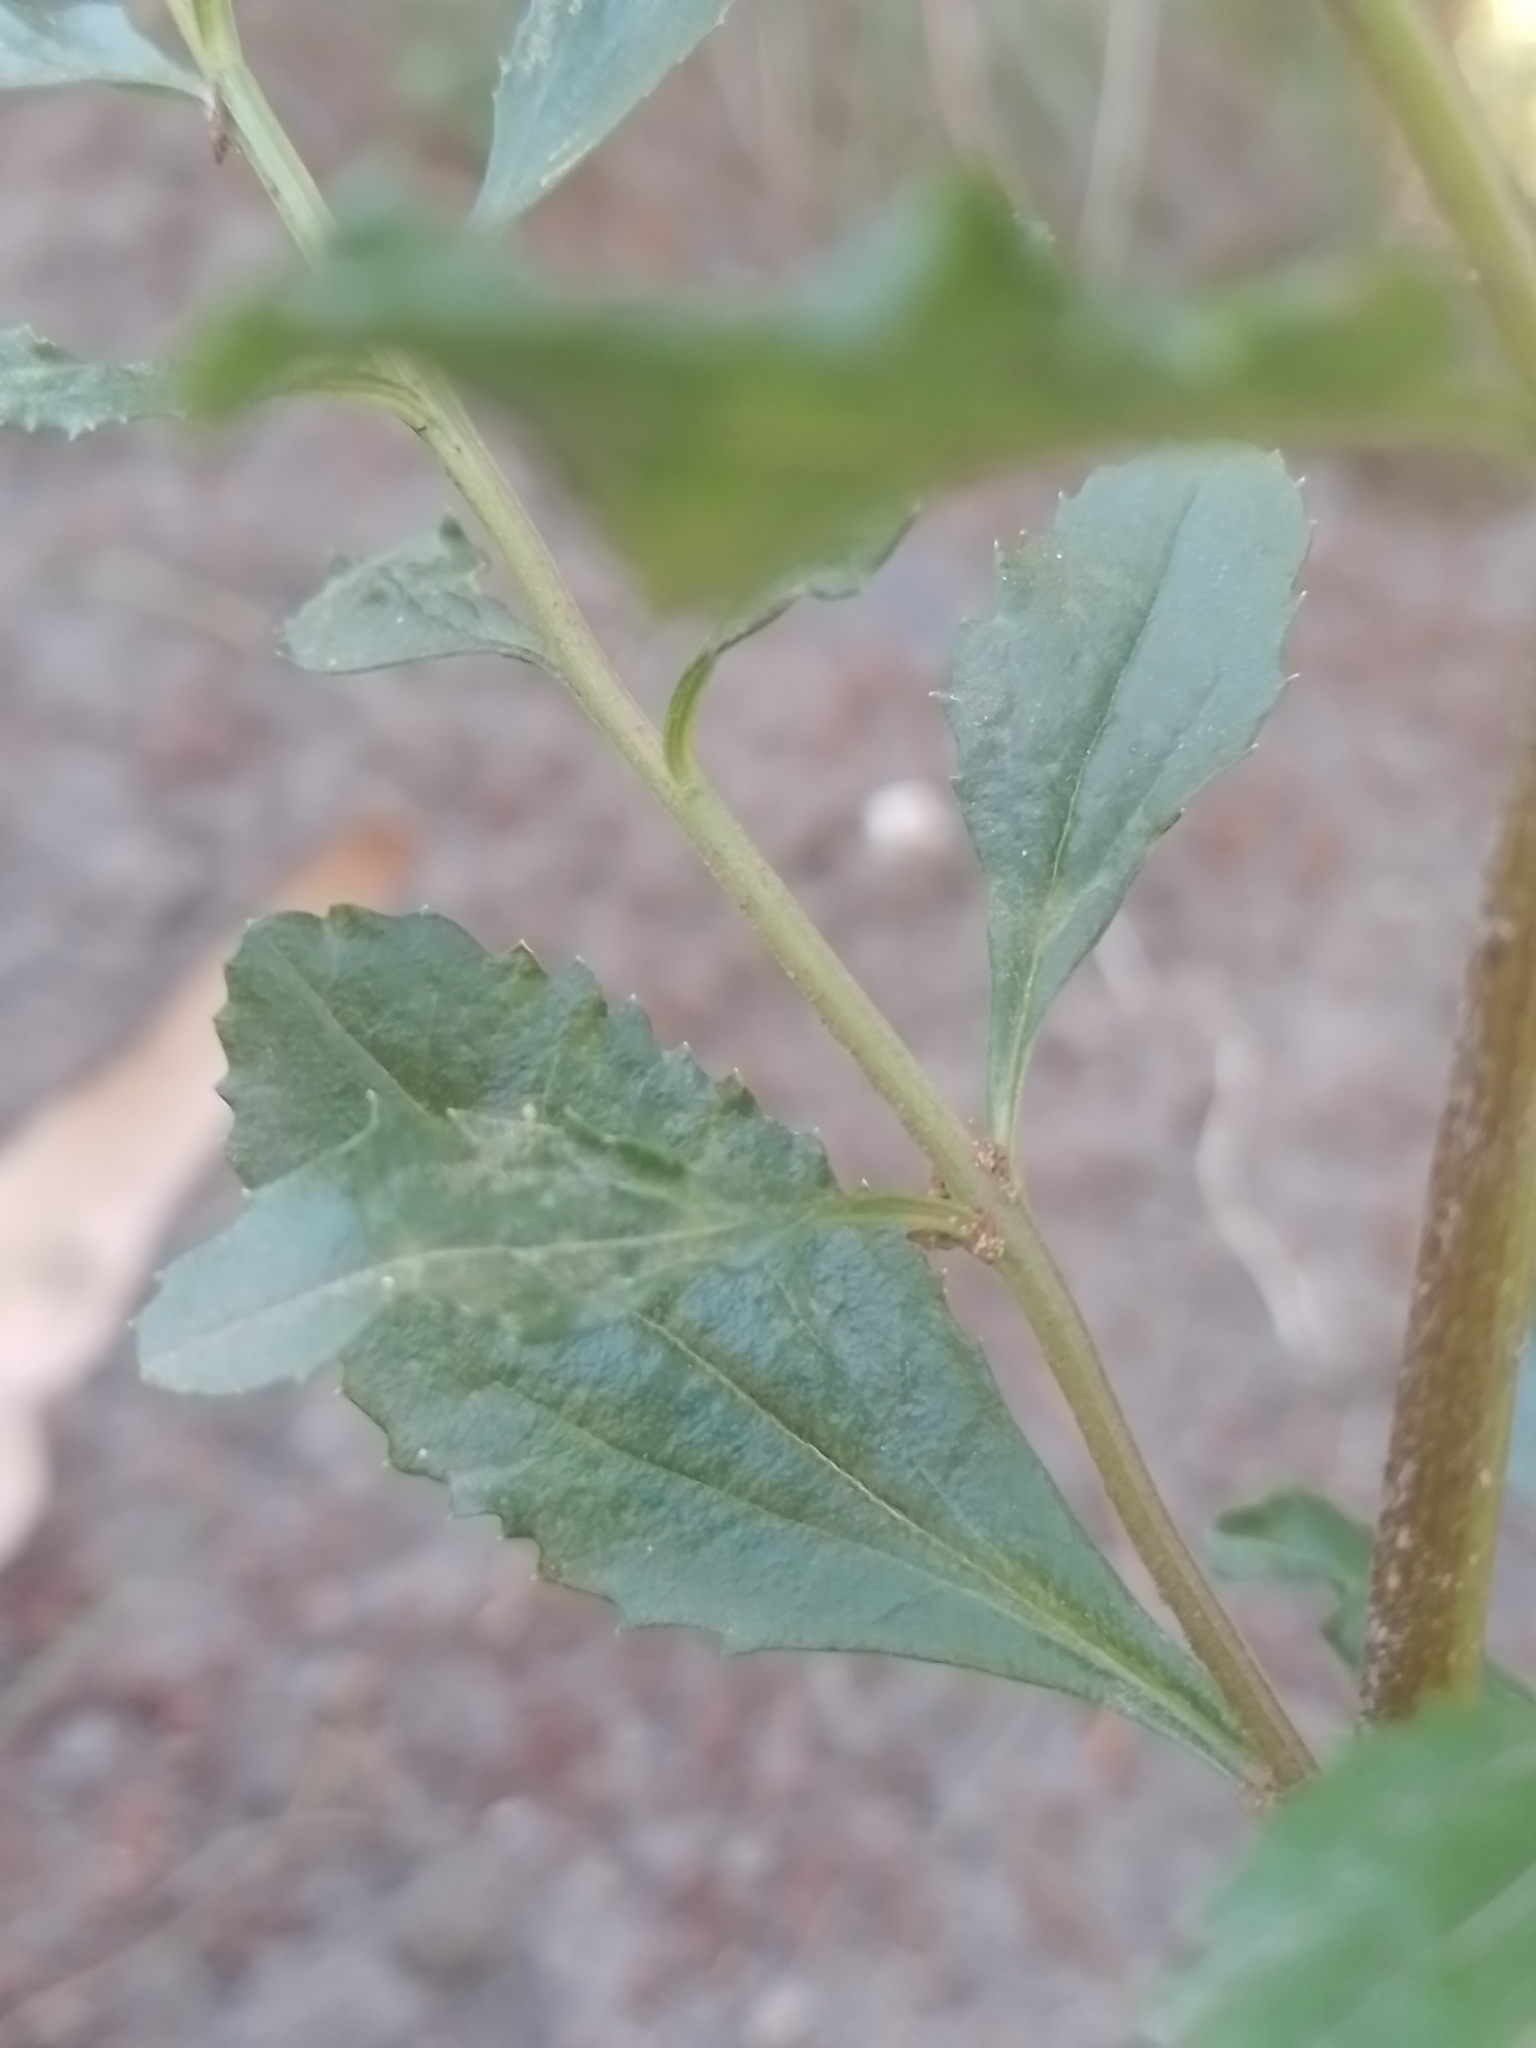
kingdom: Plantae
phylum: Tracheophyta
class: Magnoliopsida
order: Asterales
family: Asteraceae
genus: Baccharis
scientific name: Baccharis microdonta
